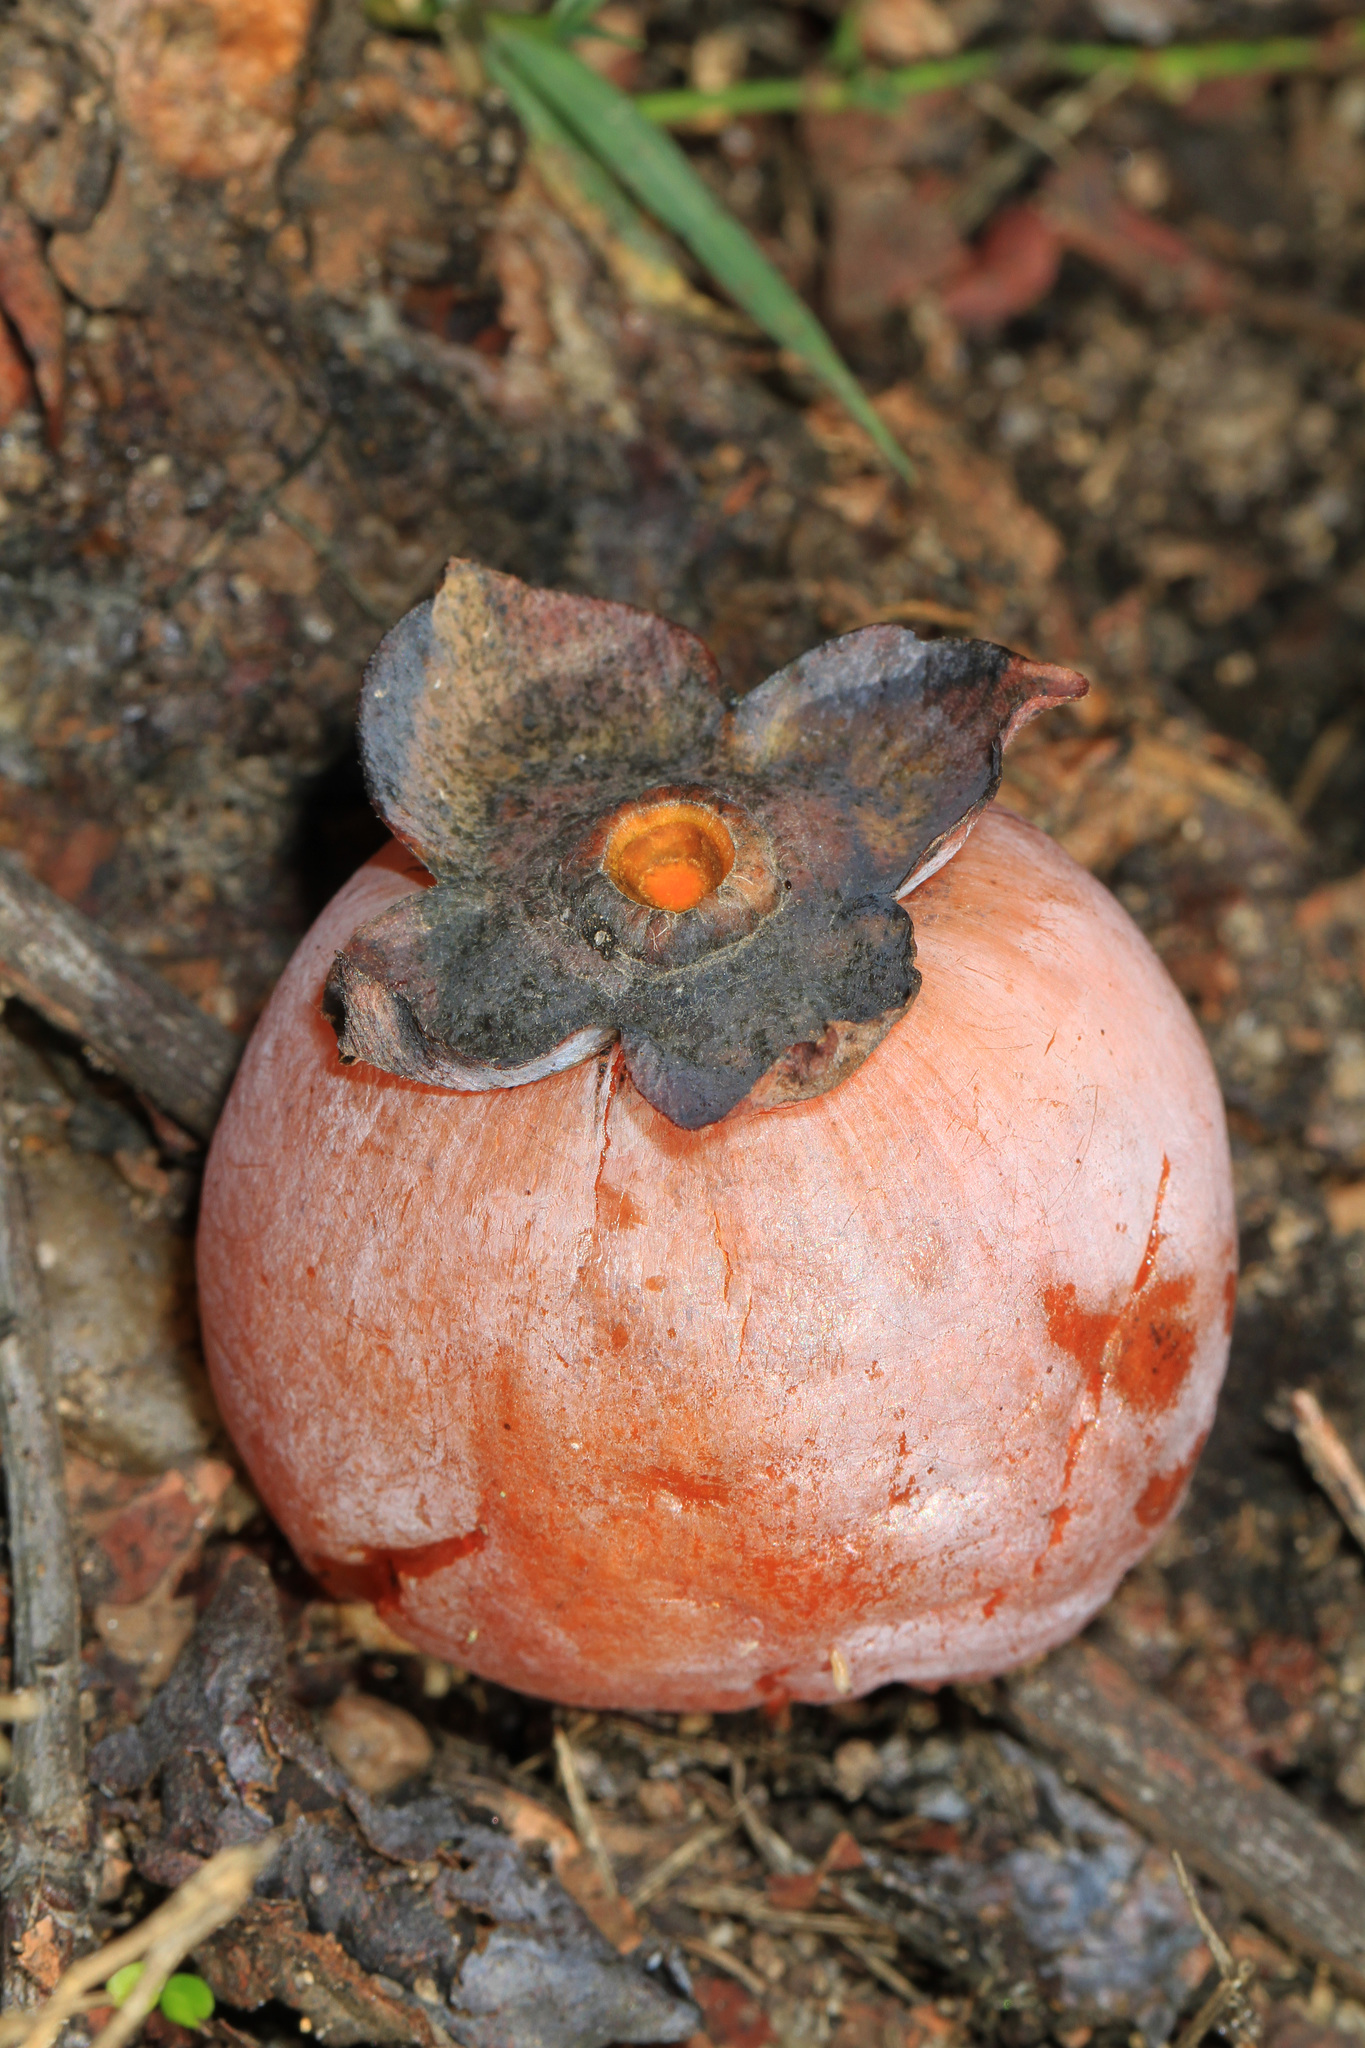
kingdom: Plantae
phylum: Tracheophyta
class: Magnoliopsida
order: Ericales
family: Ebenaceae
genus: Diospyros
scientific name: Diospyros virginiana
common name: Persimmon
